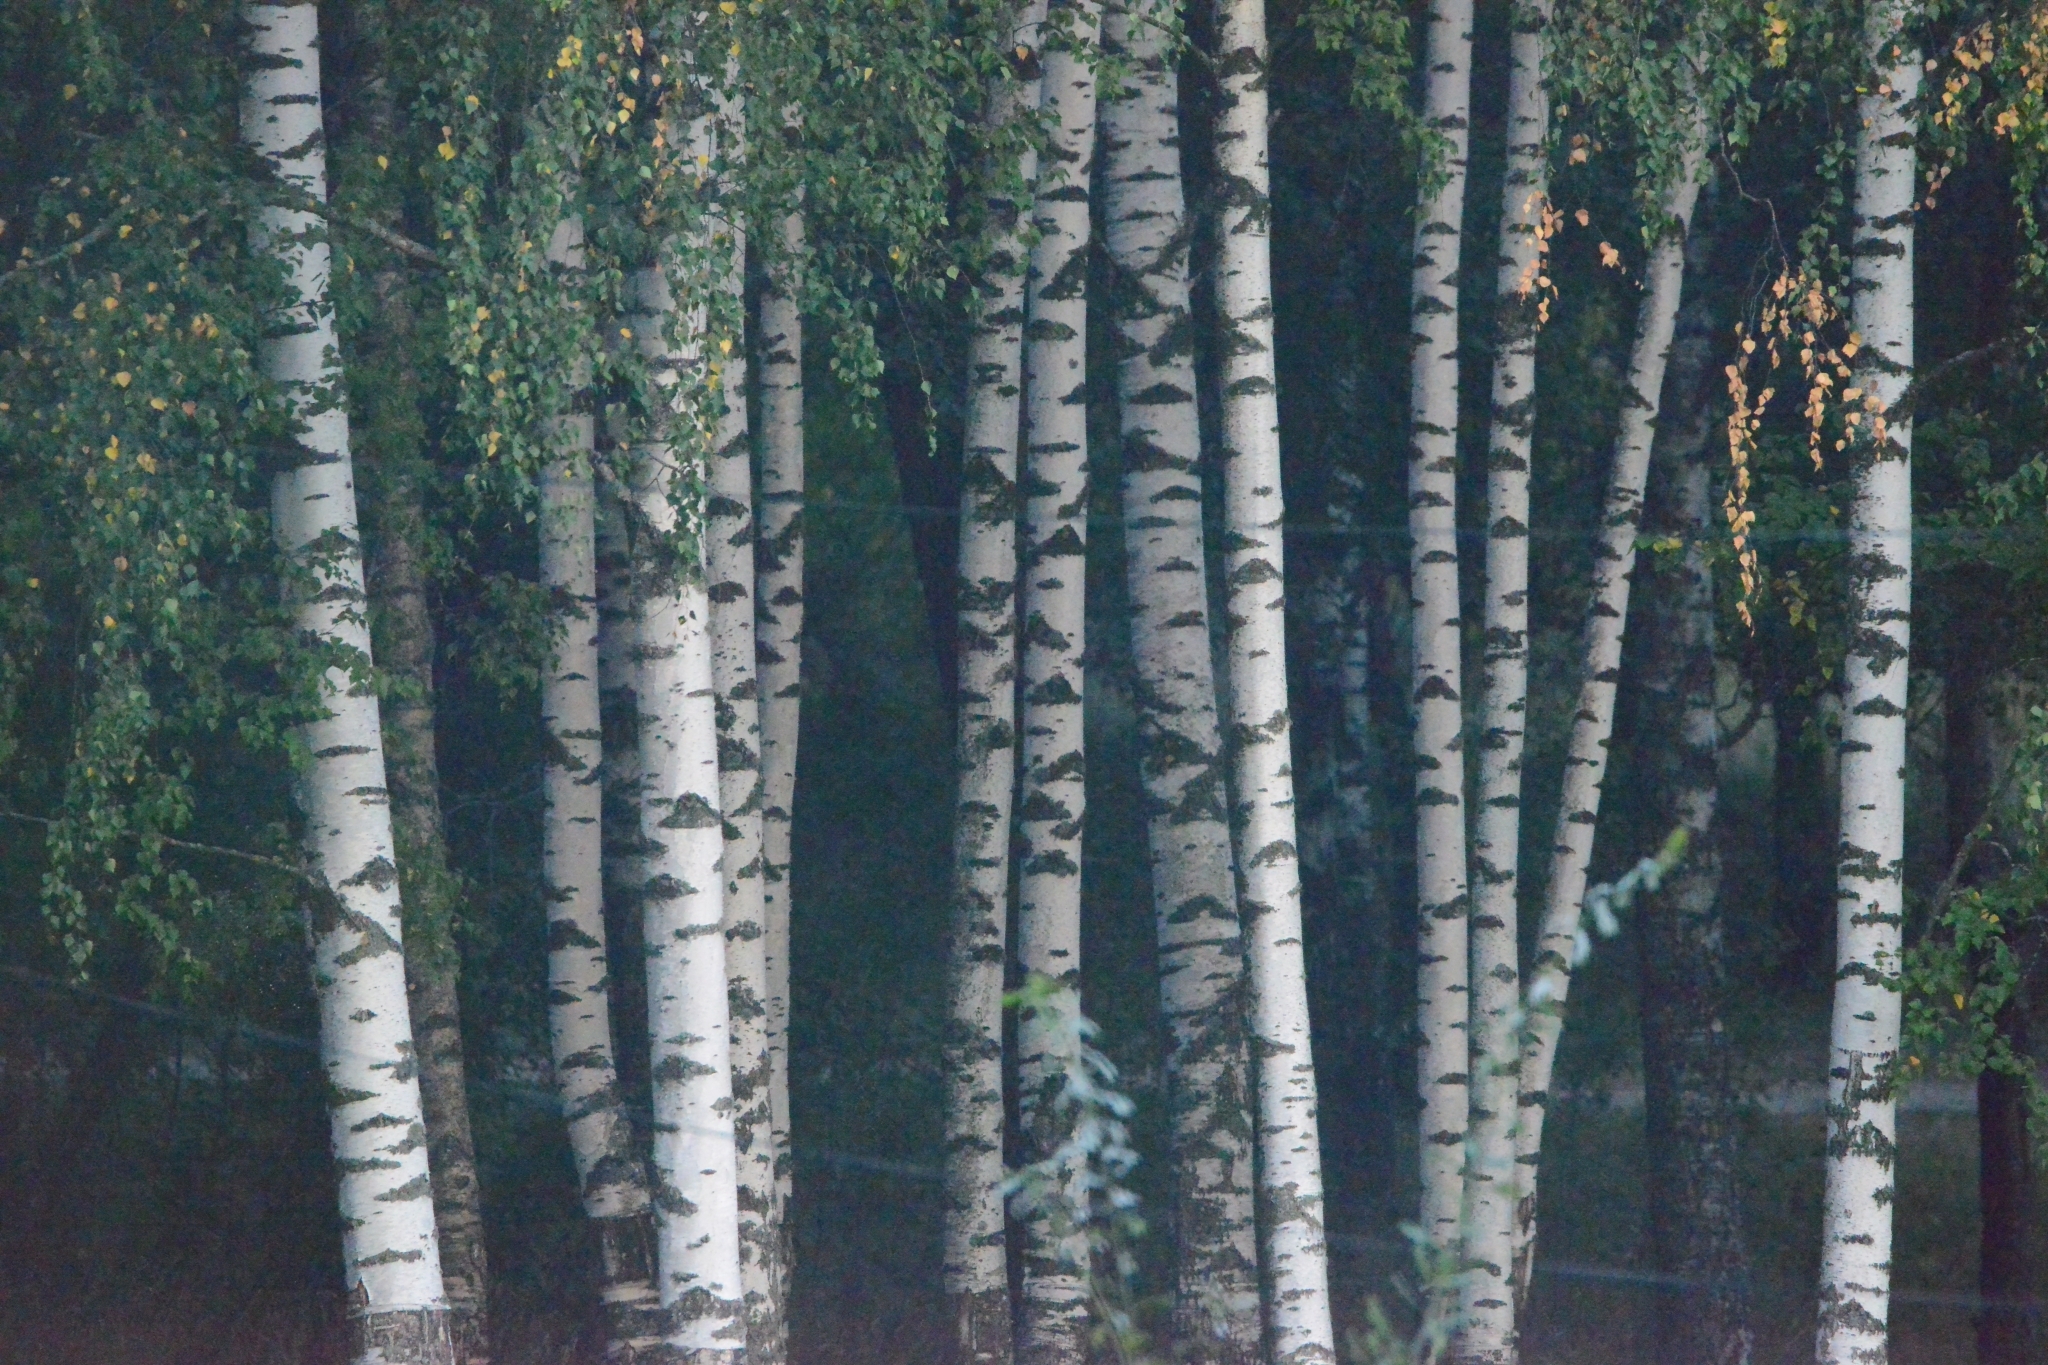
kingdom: Plantae
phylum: Tracheophyta
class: Magnoliopsida
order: Fagales
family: Betulaceae
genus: Betula
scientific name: Betula pendula
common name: Silver birch
